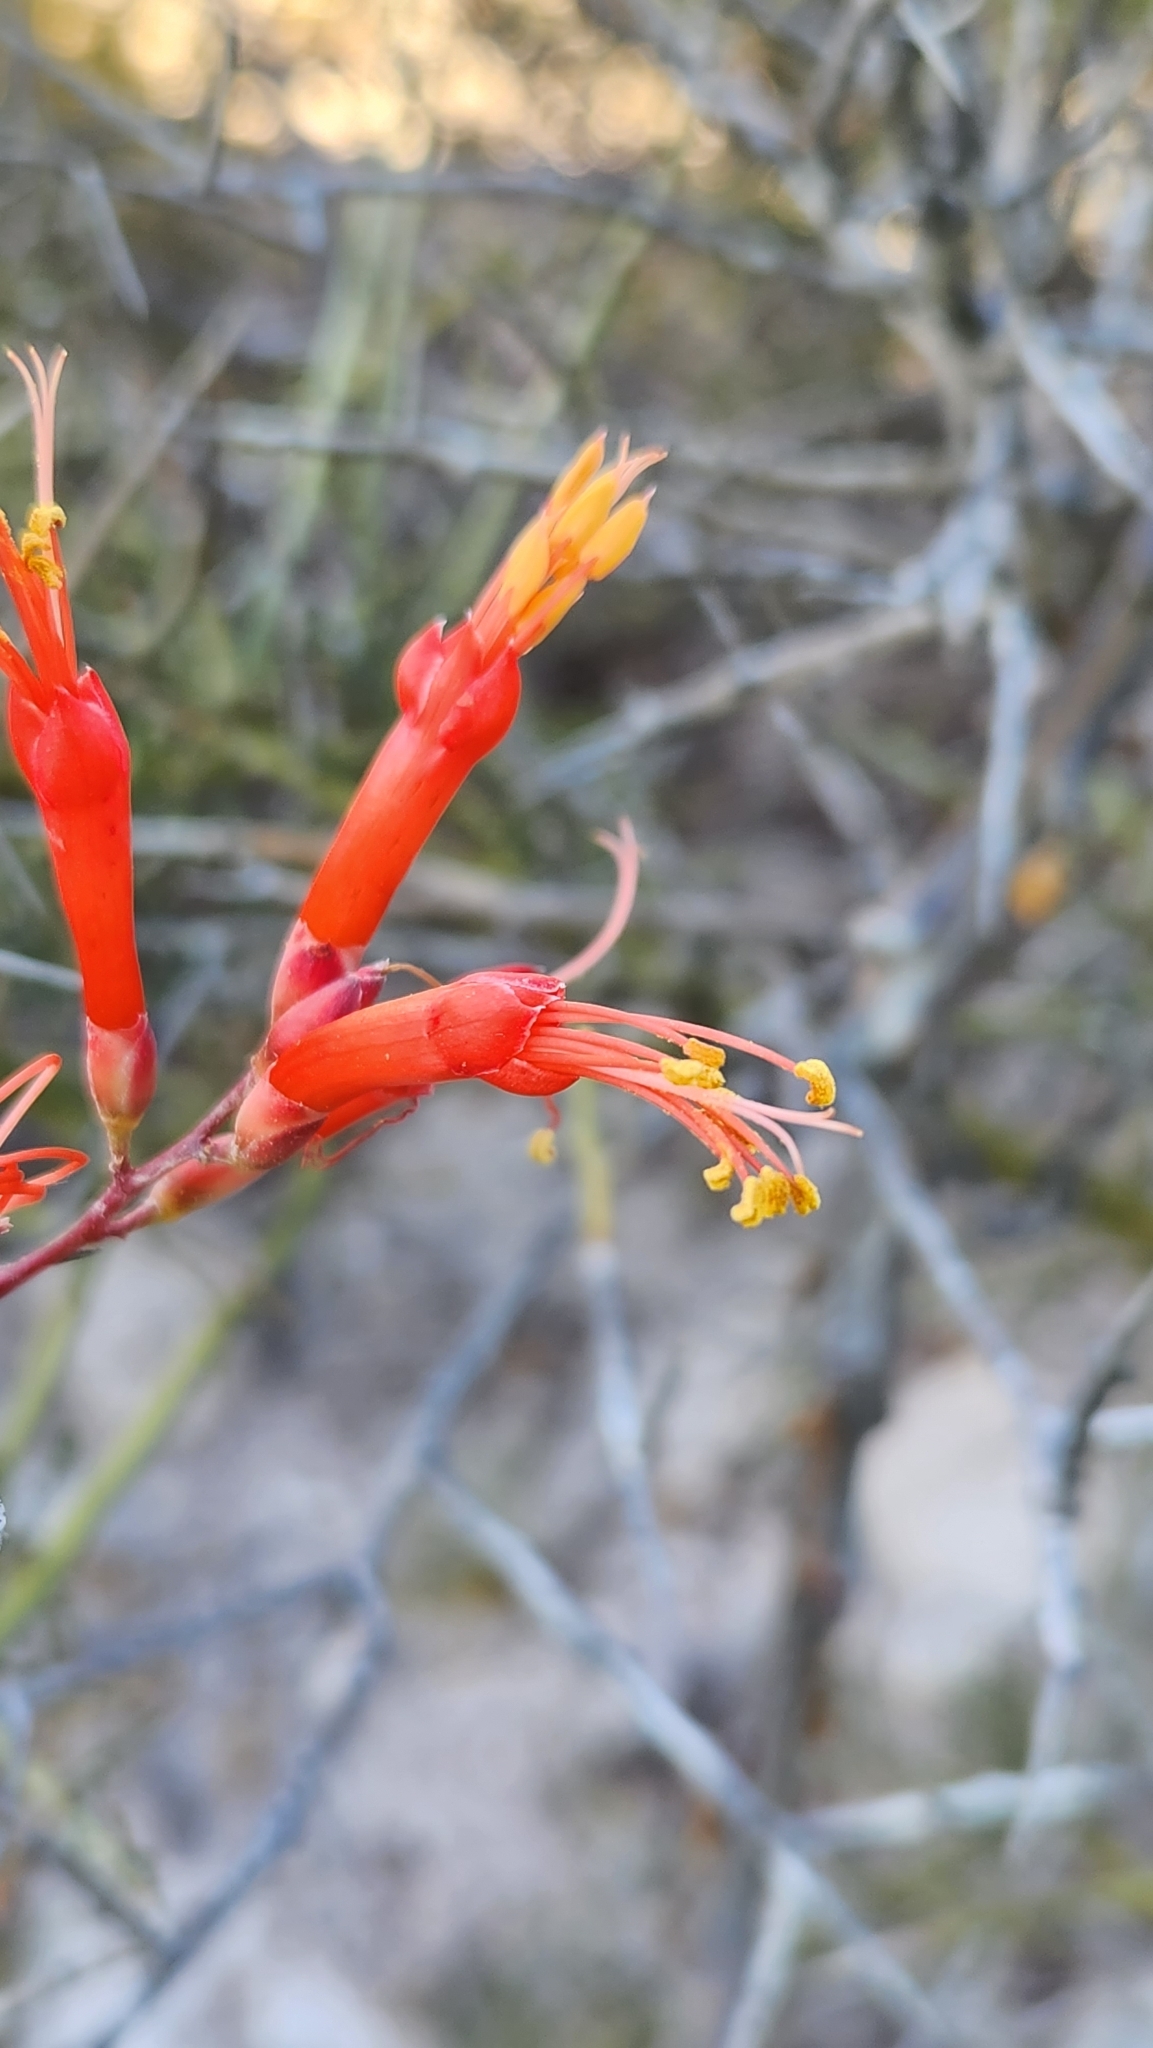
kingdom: Plantae
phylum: Tracheophyta
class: Magnoliopsida
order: Ericales
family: Fouquieriaceae
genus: Fouquieria
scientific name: Fouquieria diguetii
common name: Adam's tree
